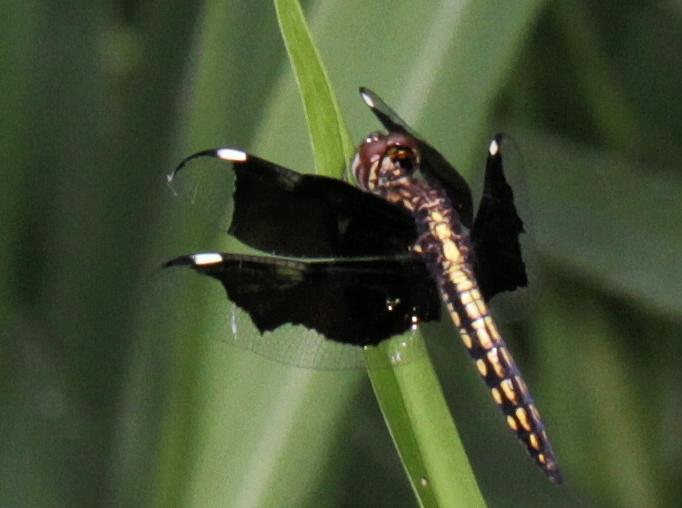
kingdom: Animalia
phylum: Arthropoda
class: Insecta
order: Odonata
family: Libellulidae
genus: Palpopleura
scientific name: Palpopleura lucia
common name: Lucia widow
